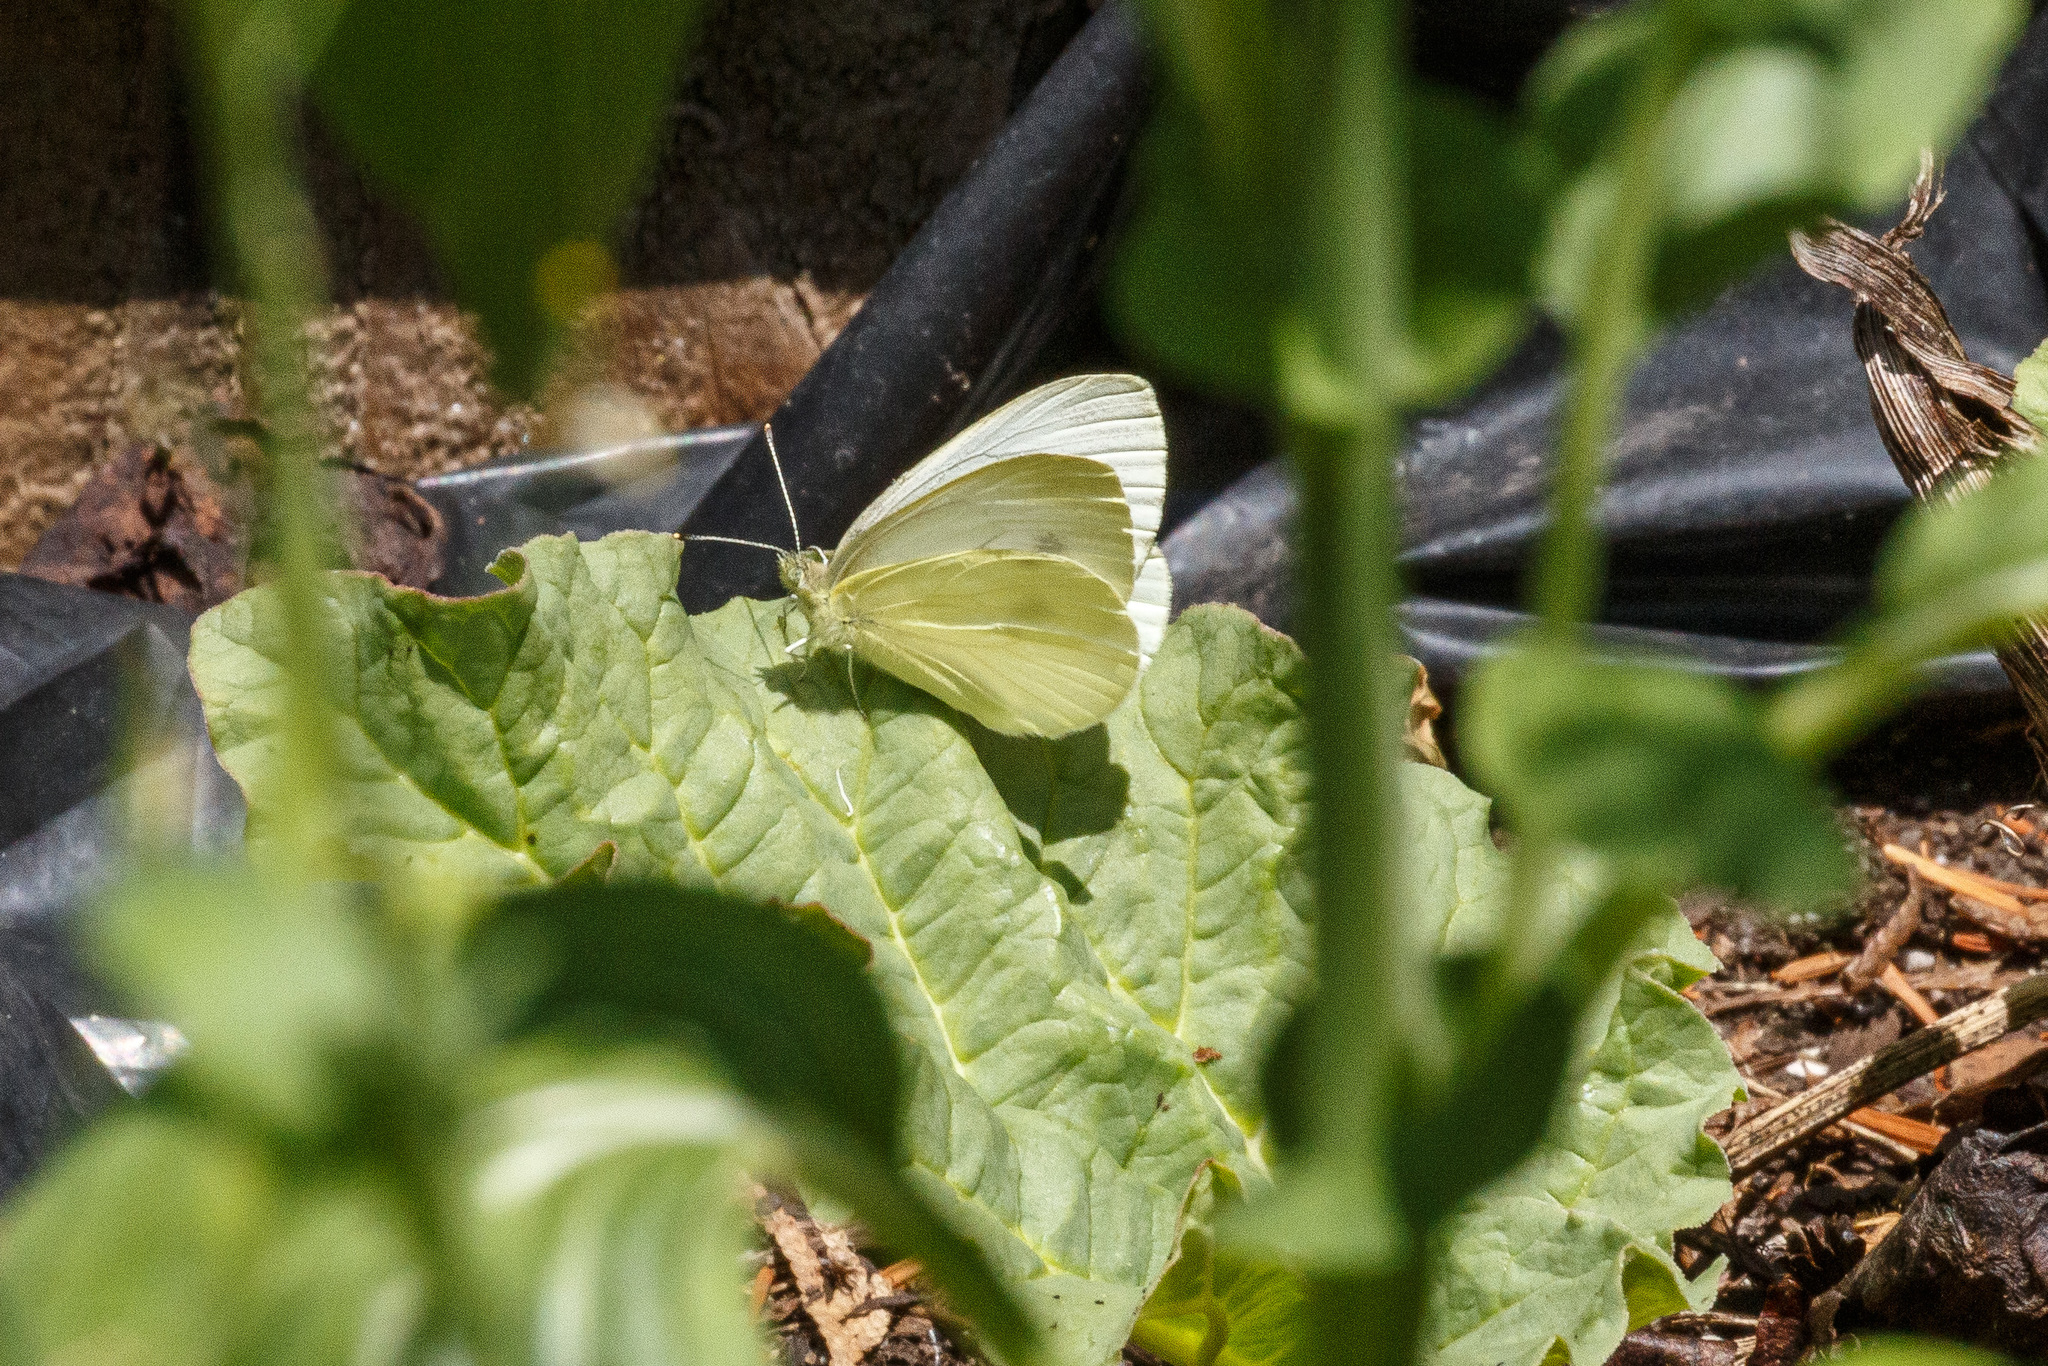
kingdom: Animalia
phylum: Arthropoda
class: Insecta
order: Lepidoptera
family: Pieridae
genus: Pieris
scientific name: Pieris rapae
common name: Small white
